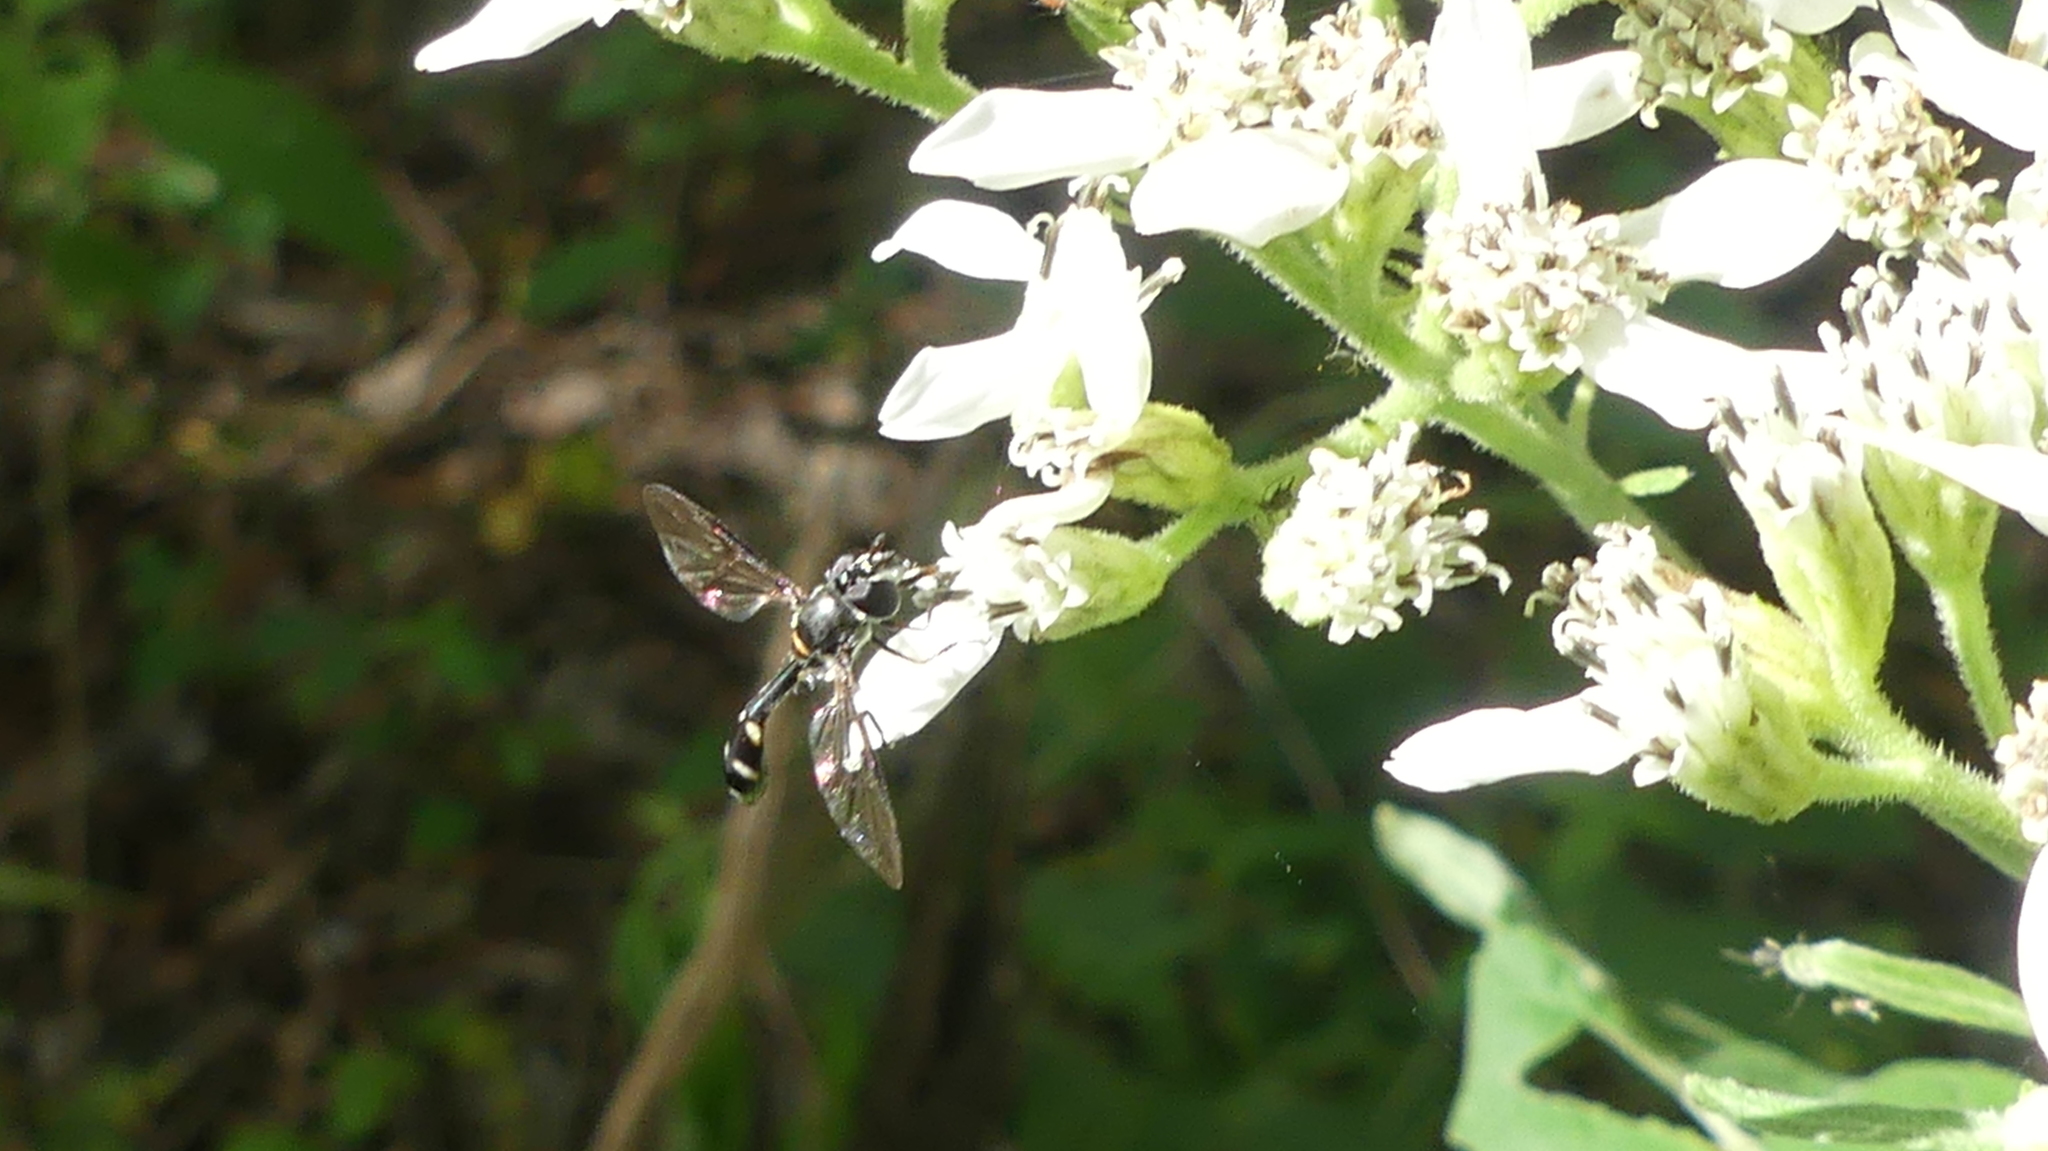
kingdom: Animalia
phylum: Arthropoda
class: Insecta
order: Diptera
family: Syrphidae
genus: Dioprosopa
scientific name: Dioprosopa clavatus
